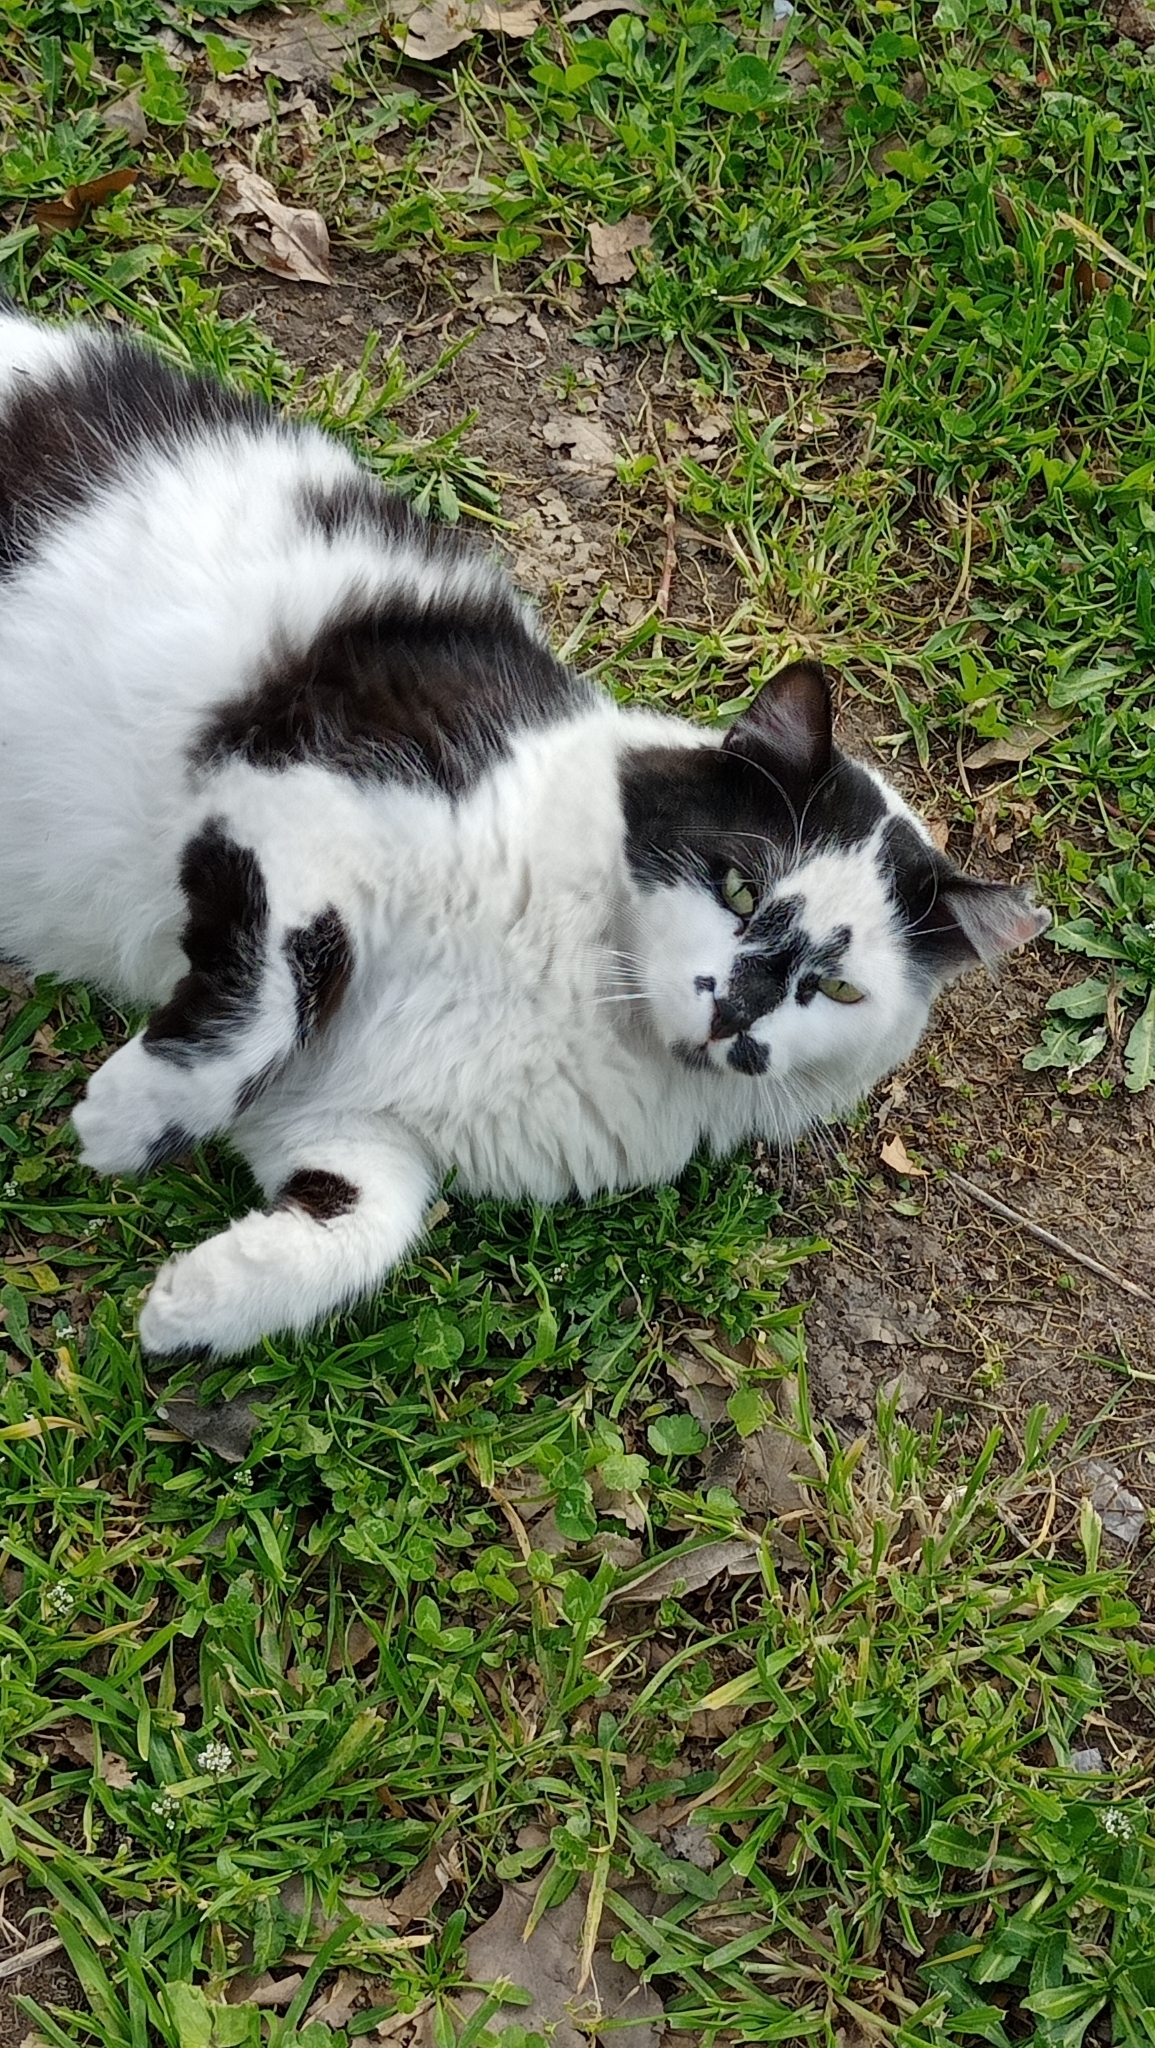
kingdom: Animalia
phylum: Chordata
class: Mammalia
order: Carnivora
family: Felidae
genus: Felis
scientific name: Felis catus
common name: Domestic cat
